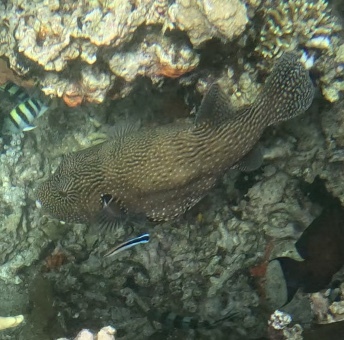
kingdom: Animalia
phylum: Chordata
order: Tetraodontiformes
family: Tetraodontidae
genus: Arothron
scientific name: Arothron mappa
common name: Map blaasop
